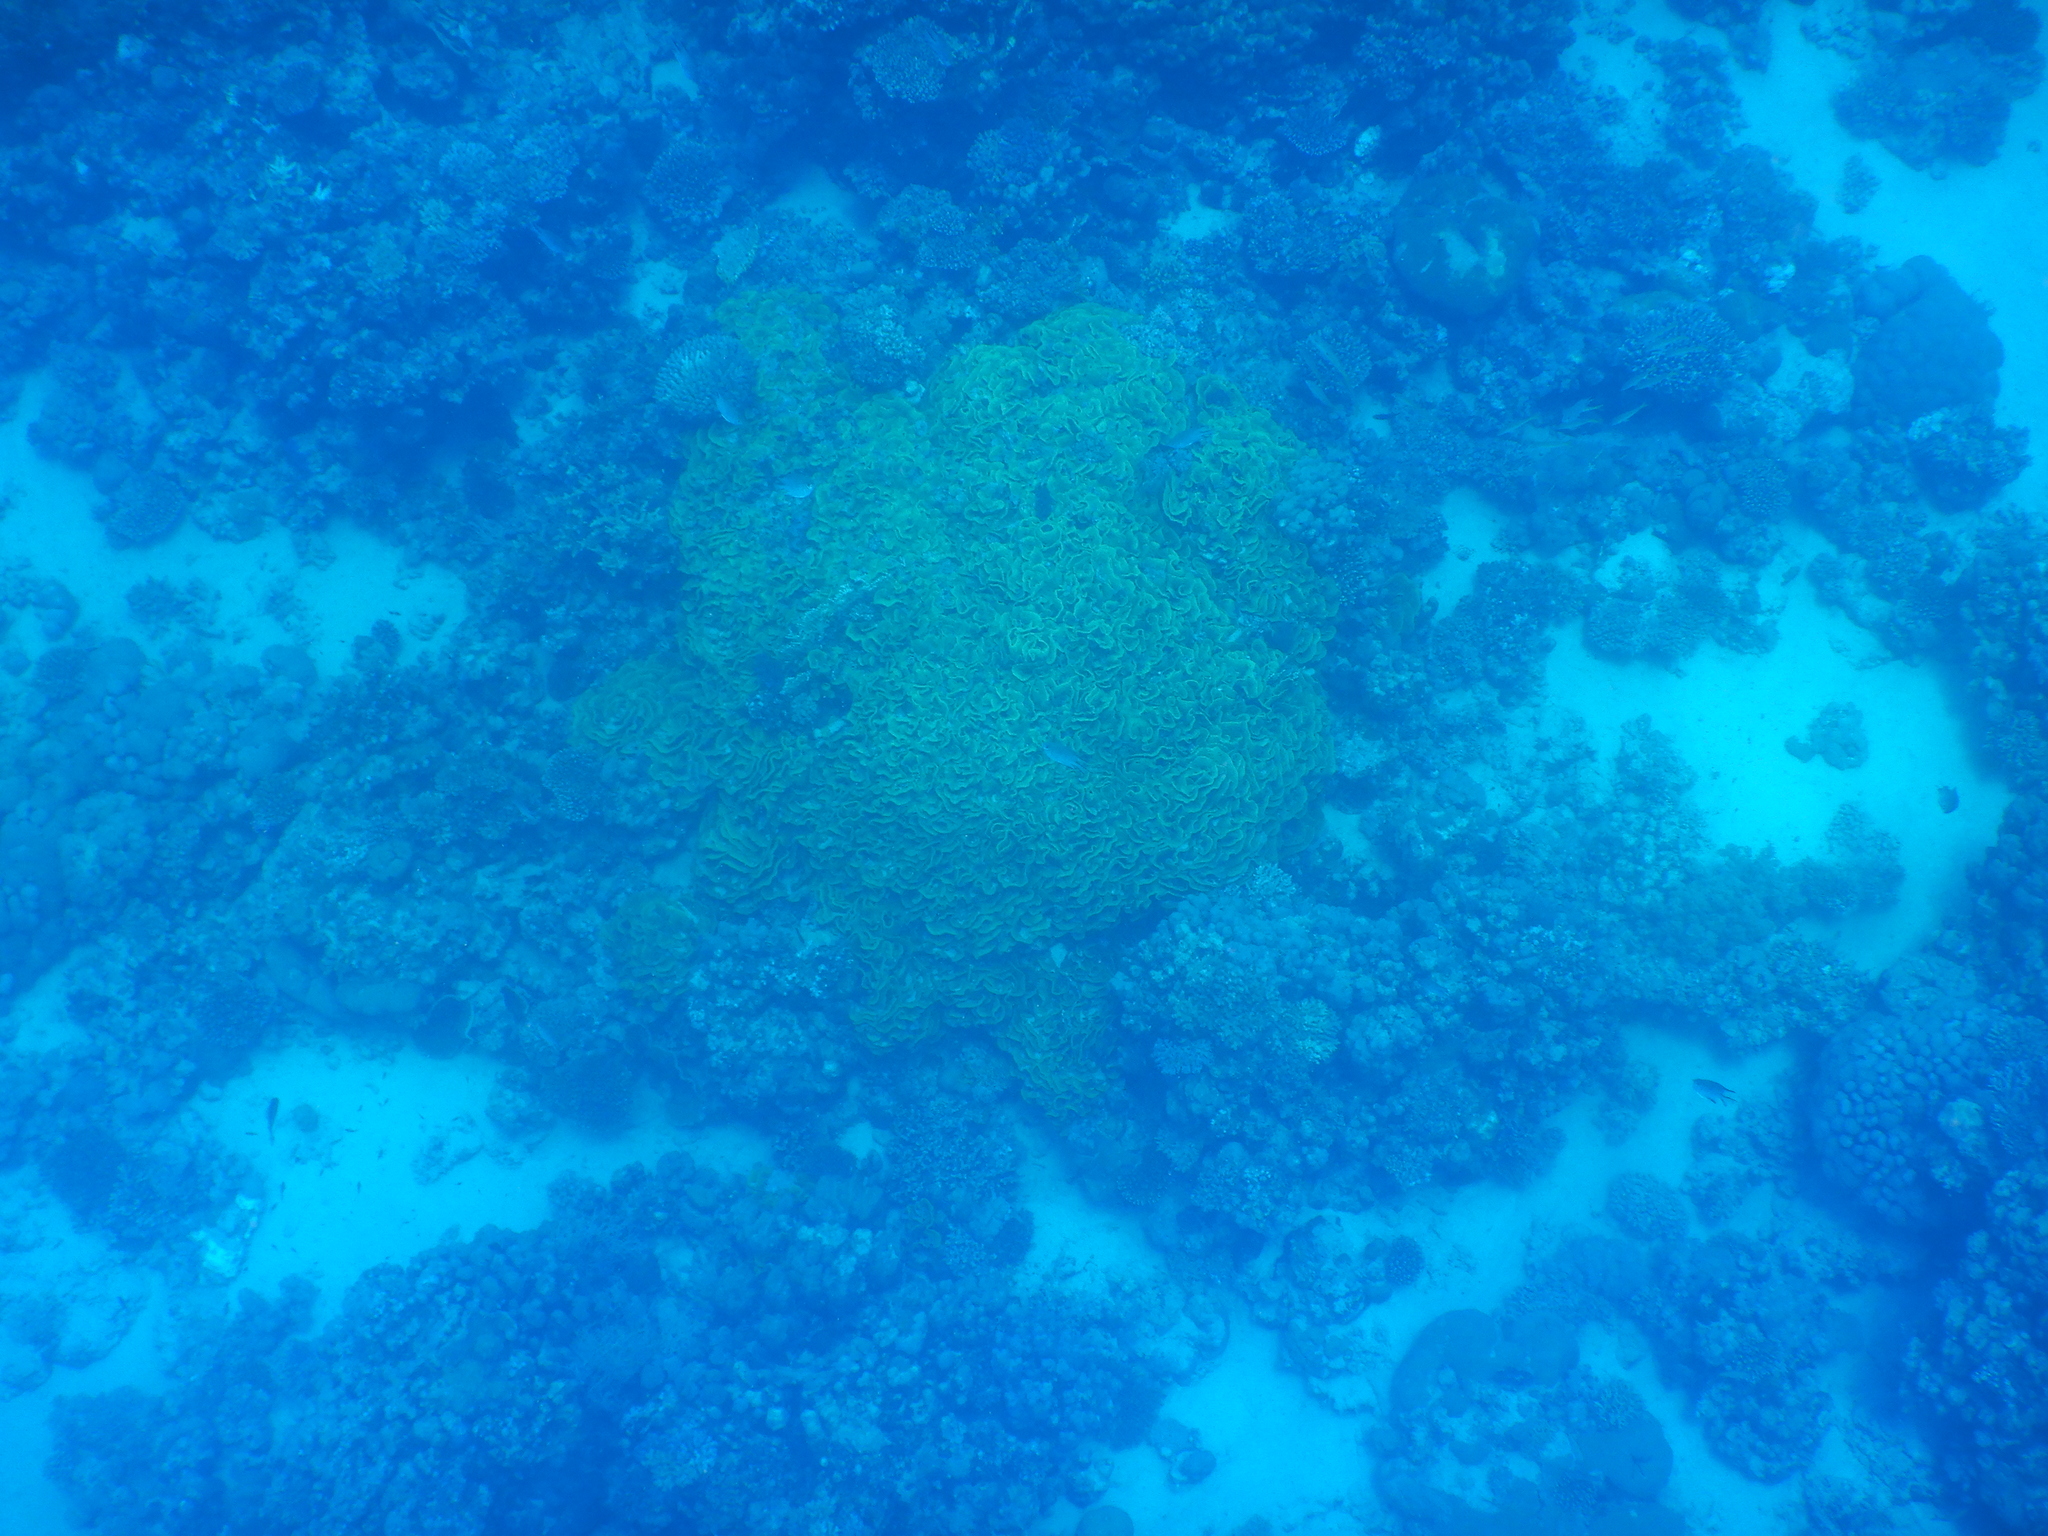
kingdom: Animalia
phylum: Cnidaria
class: Anthozoa
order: Scleractinia
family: Dendrophylliidae
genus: Turbinaria
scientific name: Turbinaria reniformis
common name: Disc coral
